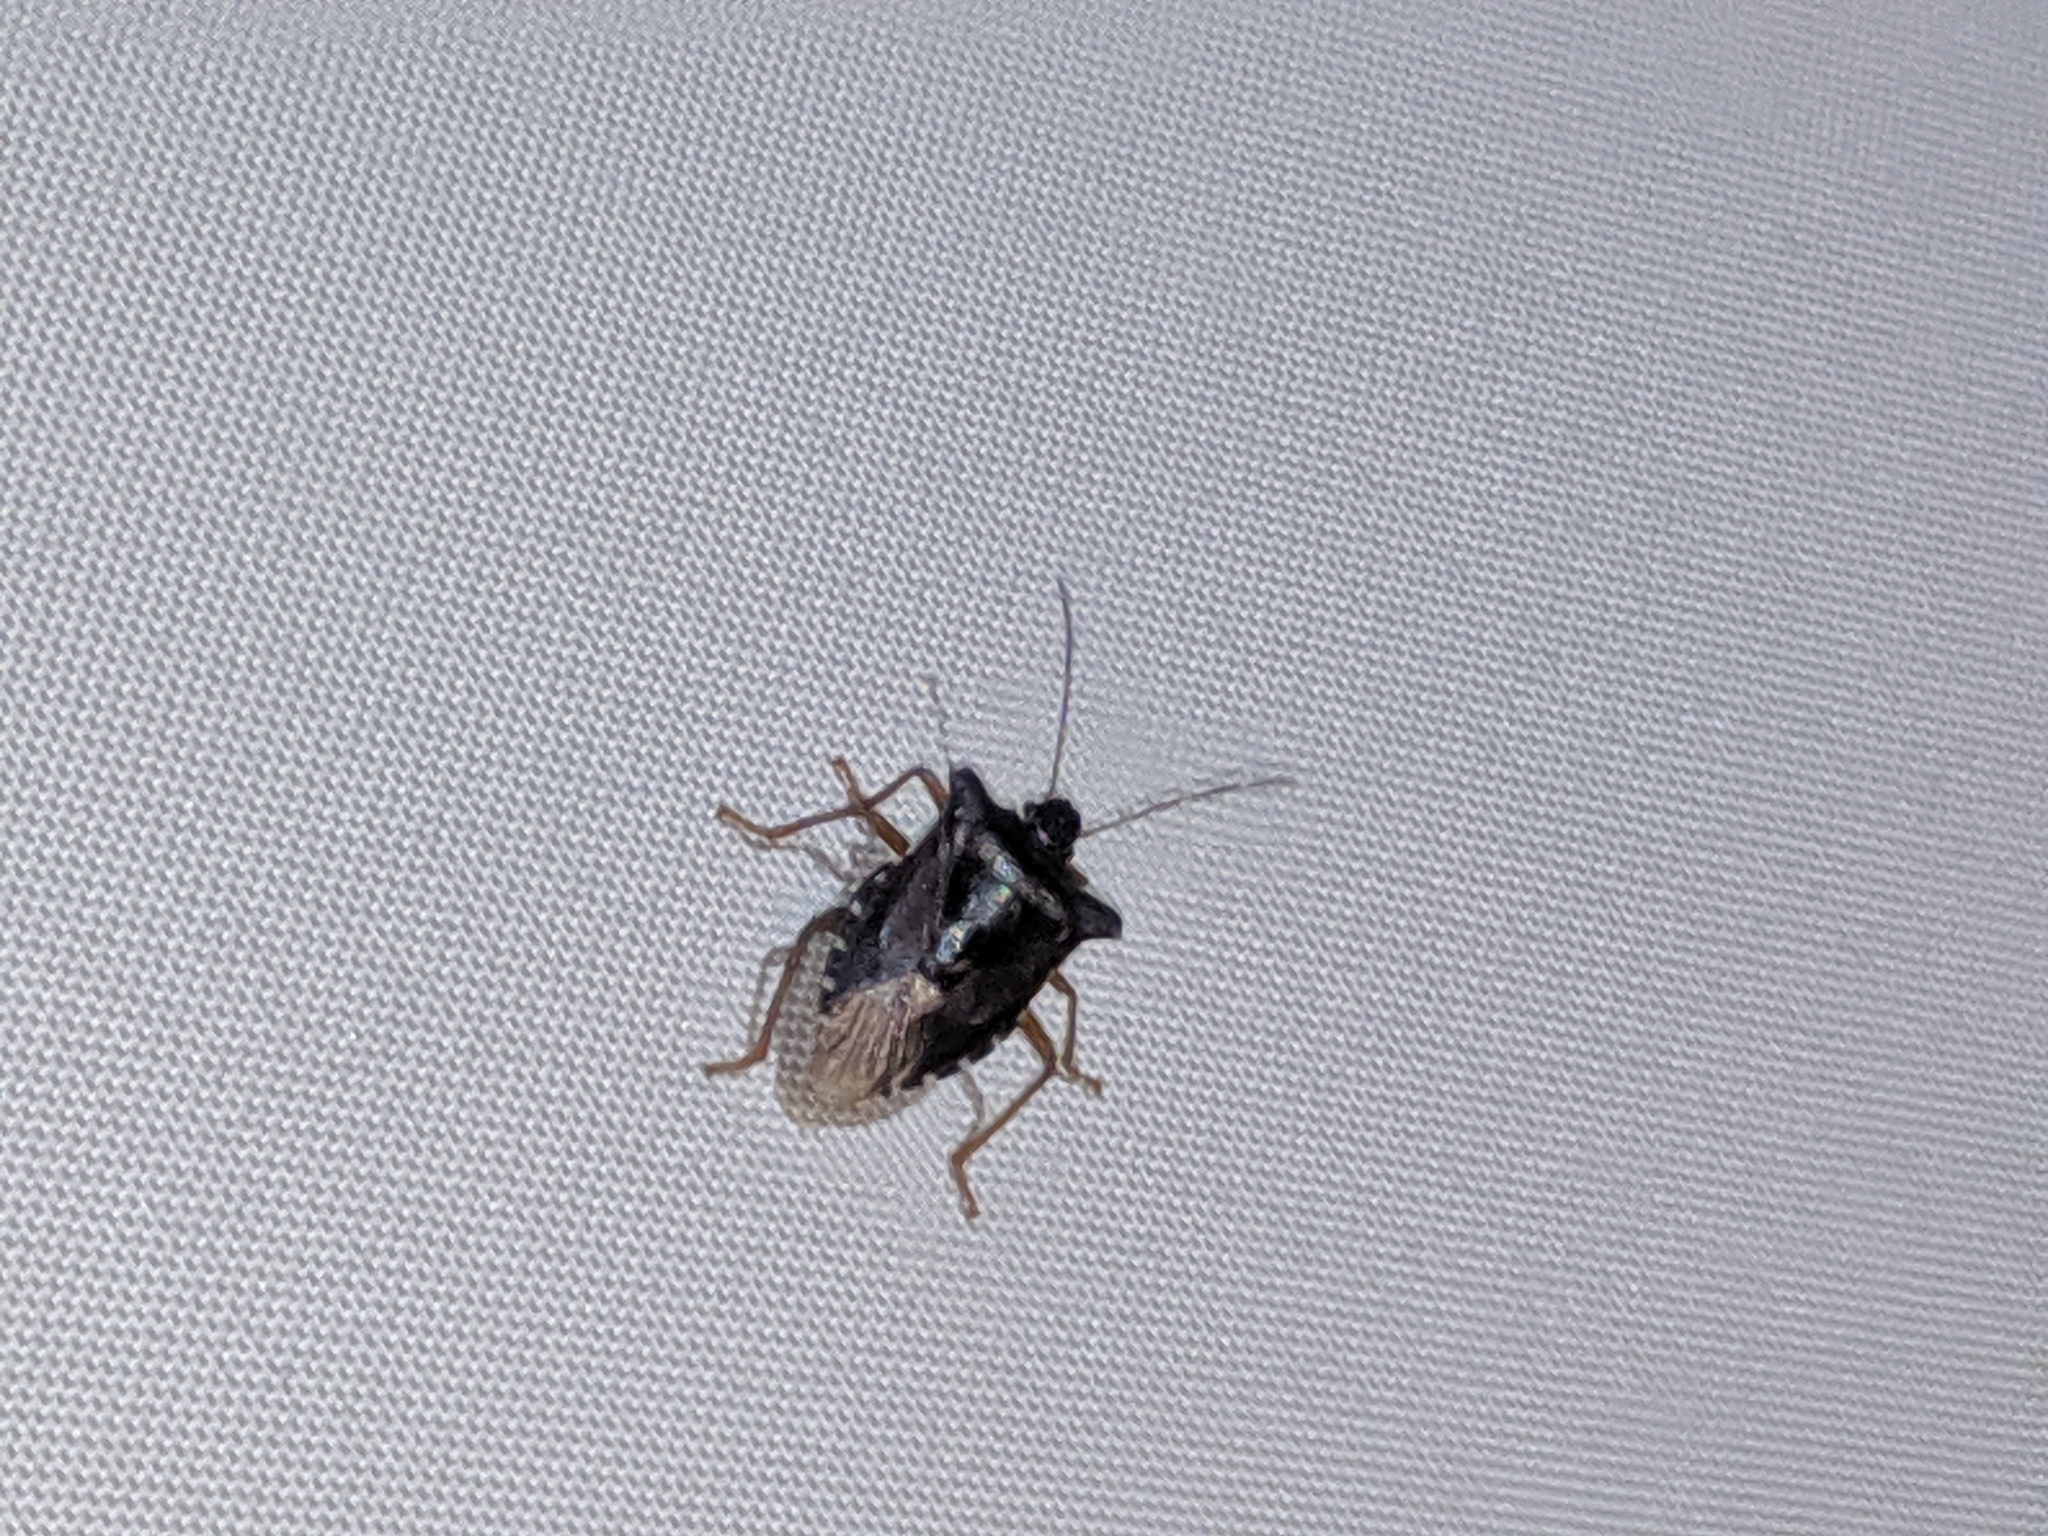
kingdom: Animalia
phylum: Arthropoda
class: Insecta
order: Hemiptera
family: Pentatomidae
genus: Pentatoma
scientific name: Pentatoma rufipes
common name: Forest bug
